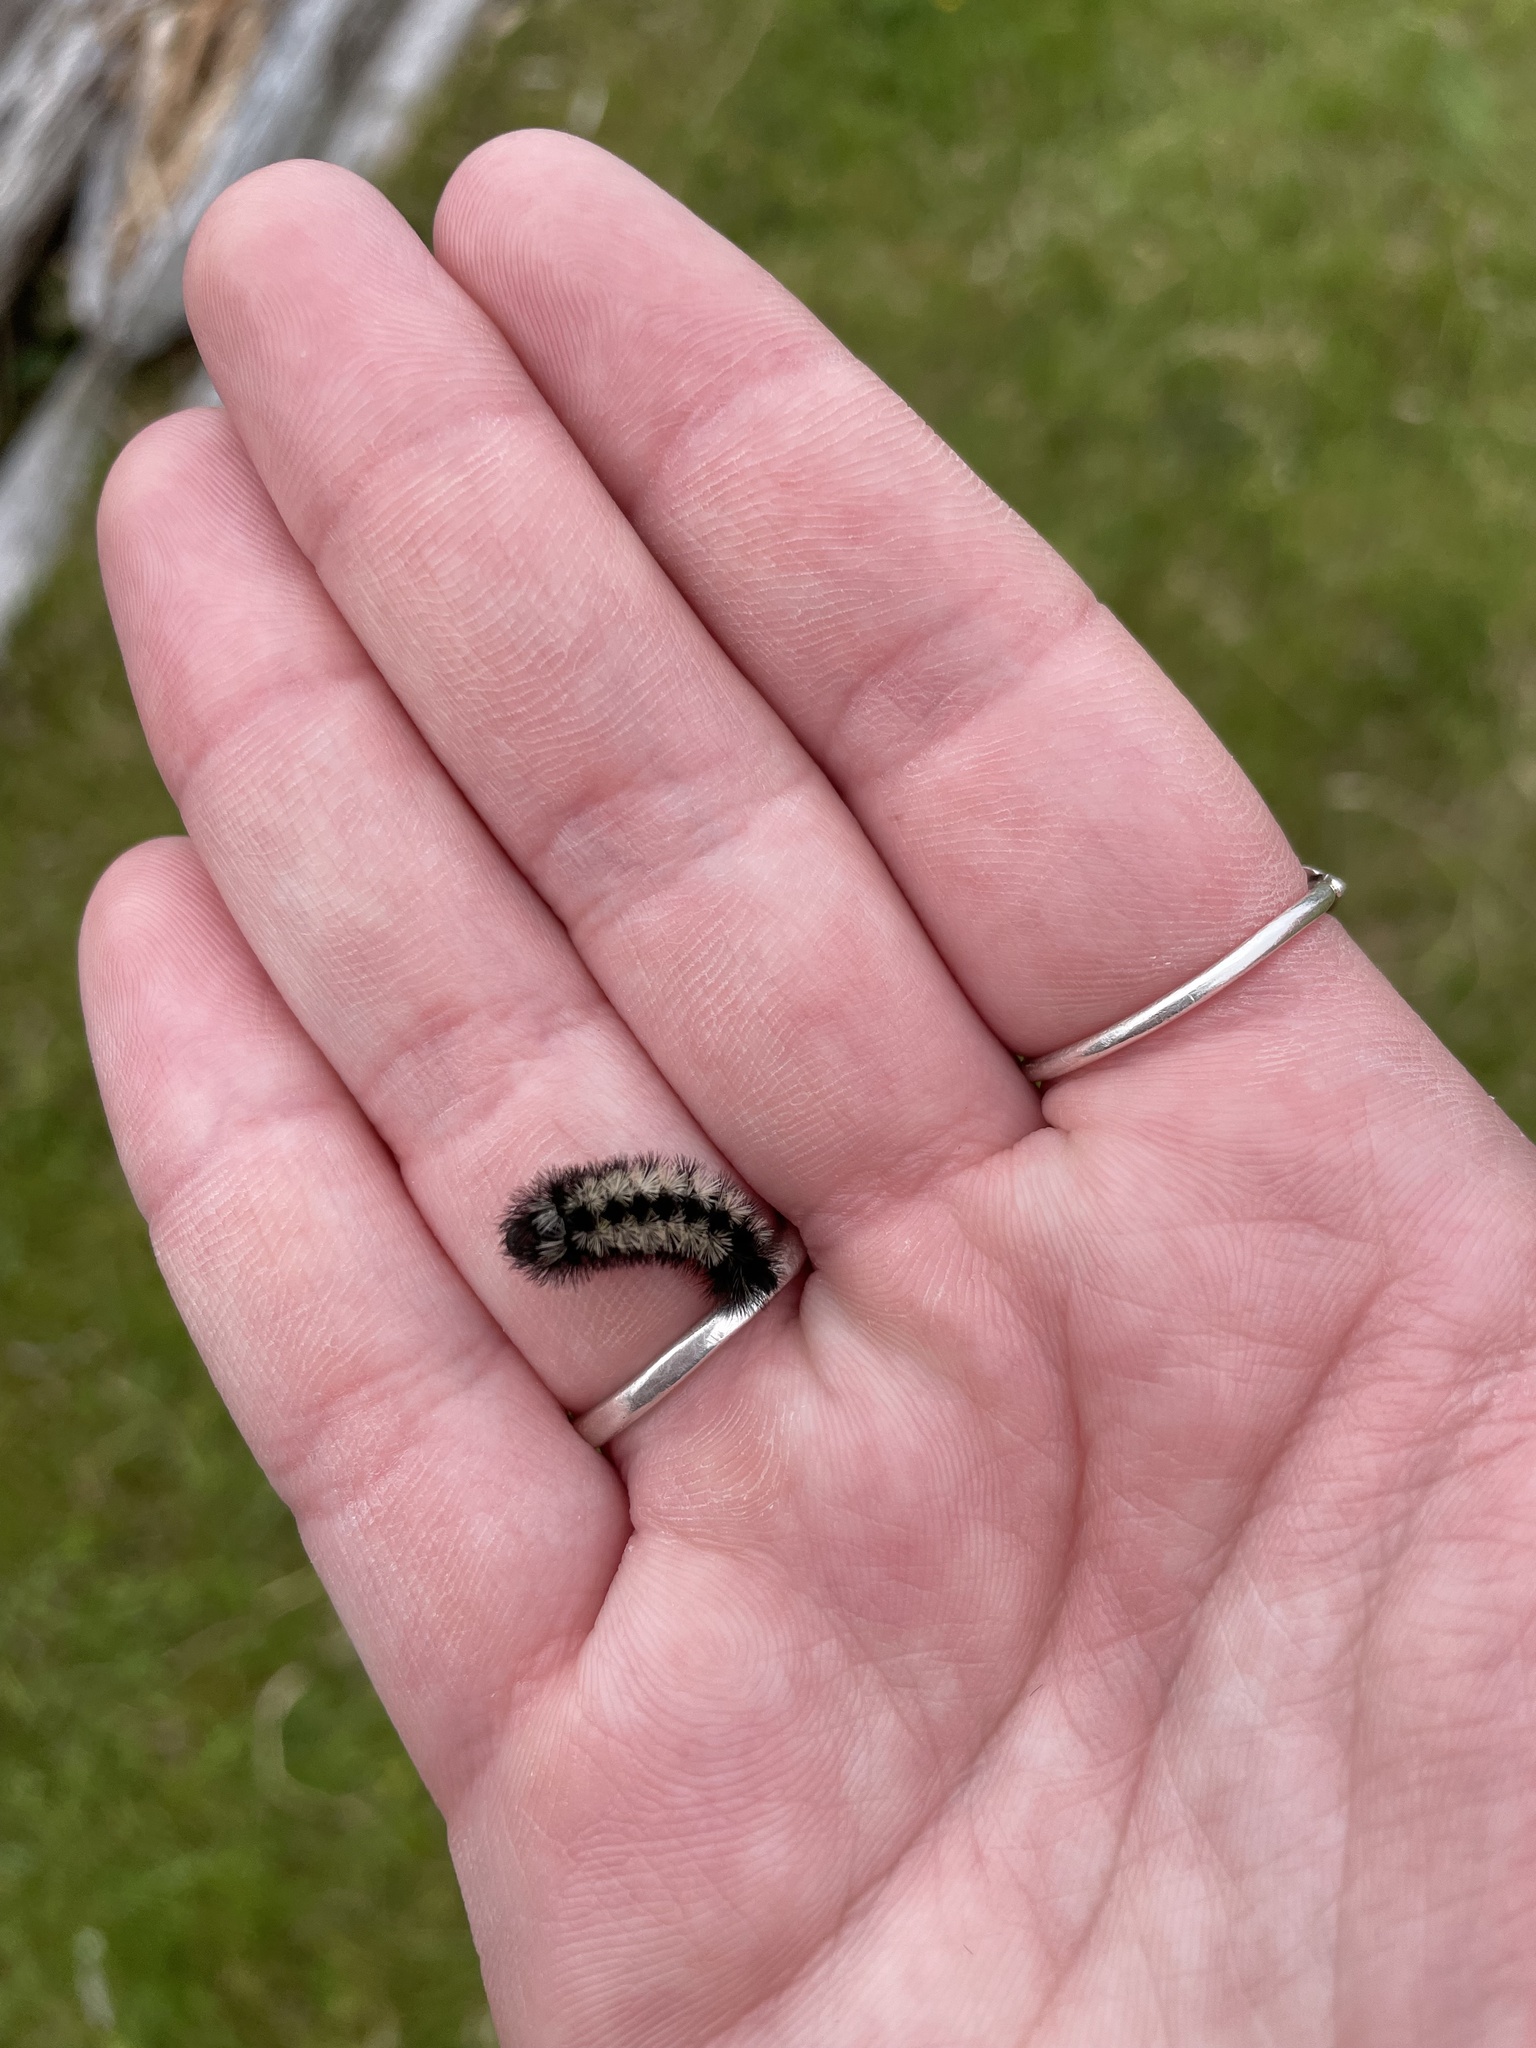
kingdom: Animalia
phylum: Arthropoda
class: Insecta
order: Lepidoptera
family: Erebidae
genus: Ctenucha
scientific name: Ctenucha virginica
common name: Virginia ctenucha moth
